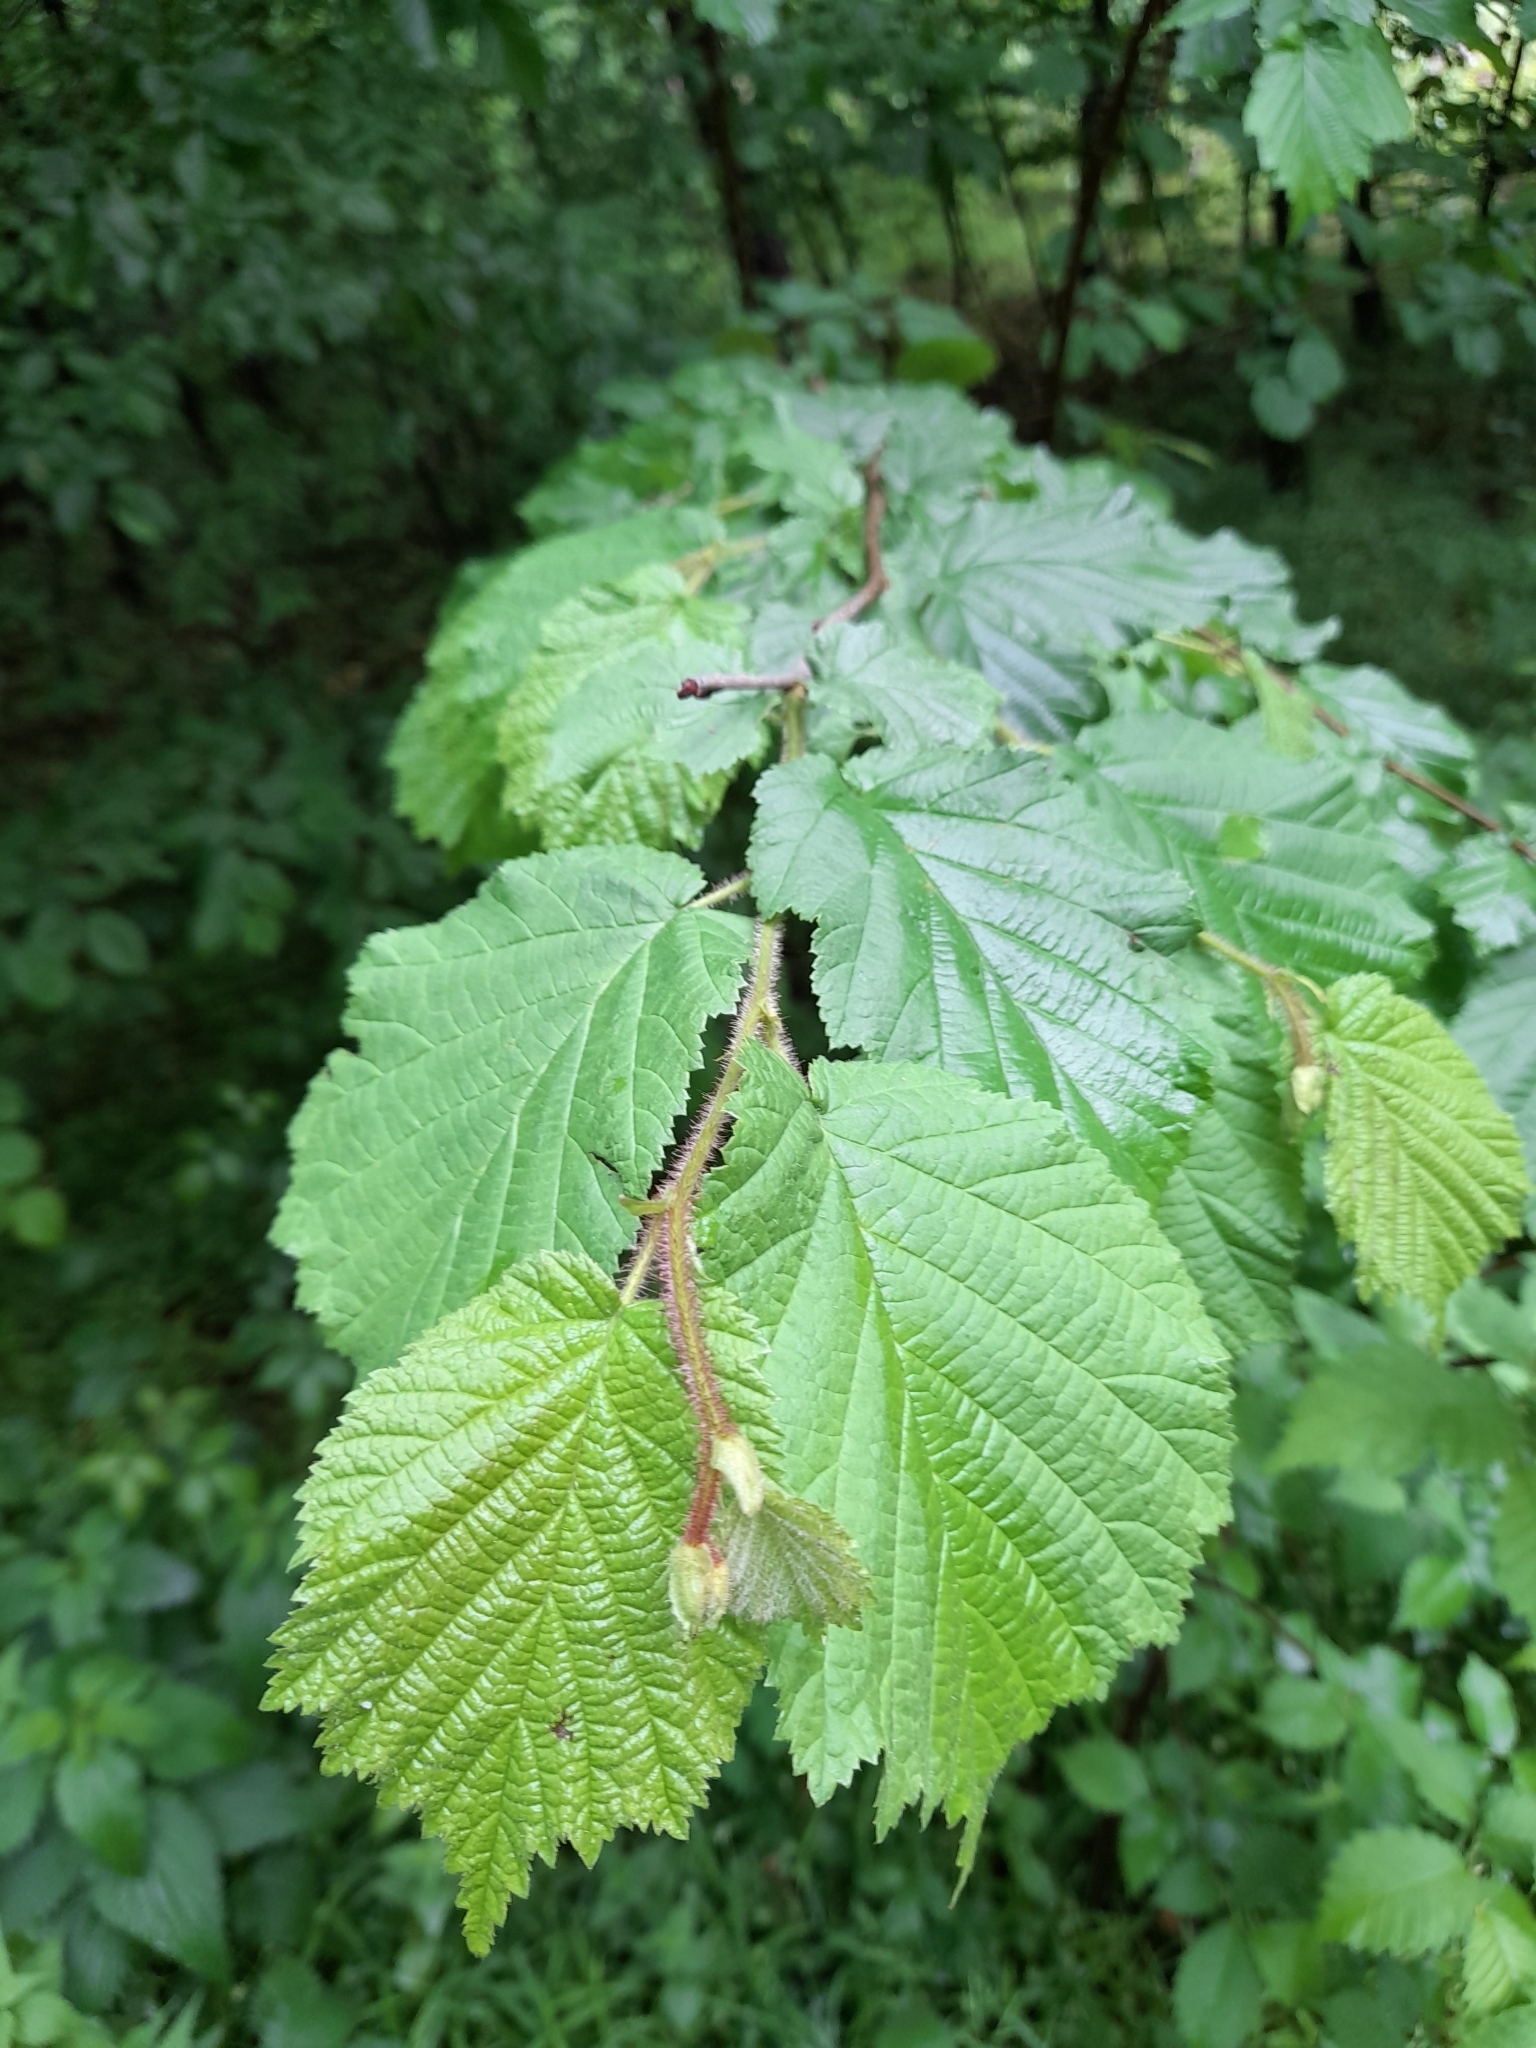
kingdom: Plantae
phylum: Tracheophyta
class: Magnoliopsida
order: Fagales
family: Betulaceae
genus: Corylus
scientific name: Corylus avellana
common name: European hazel
